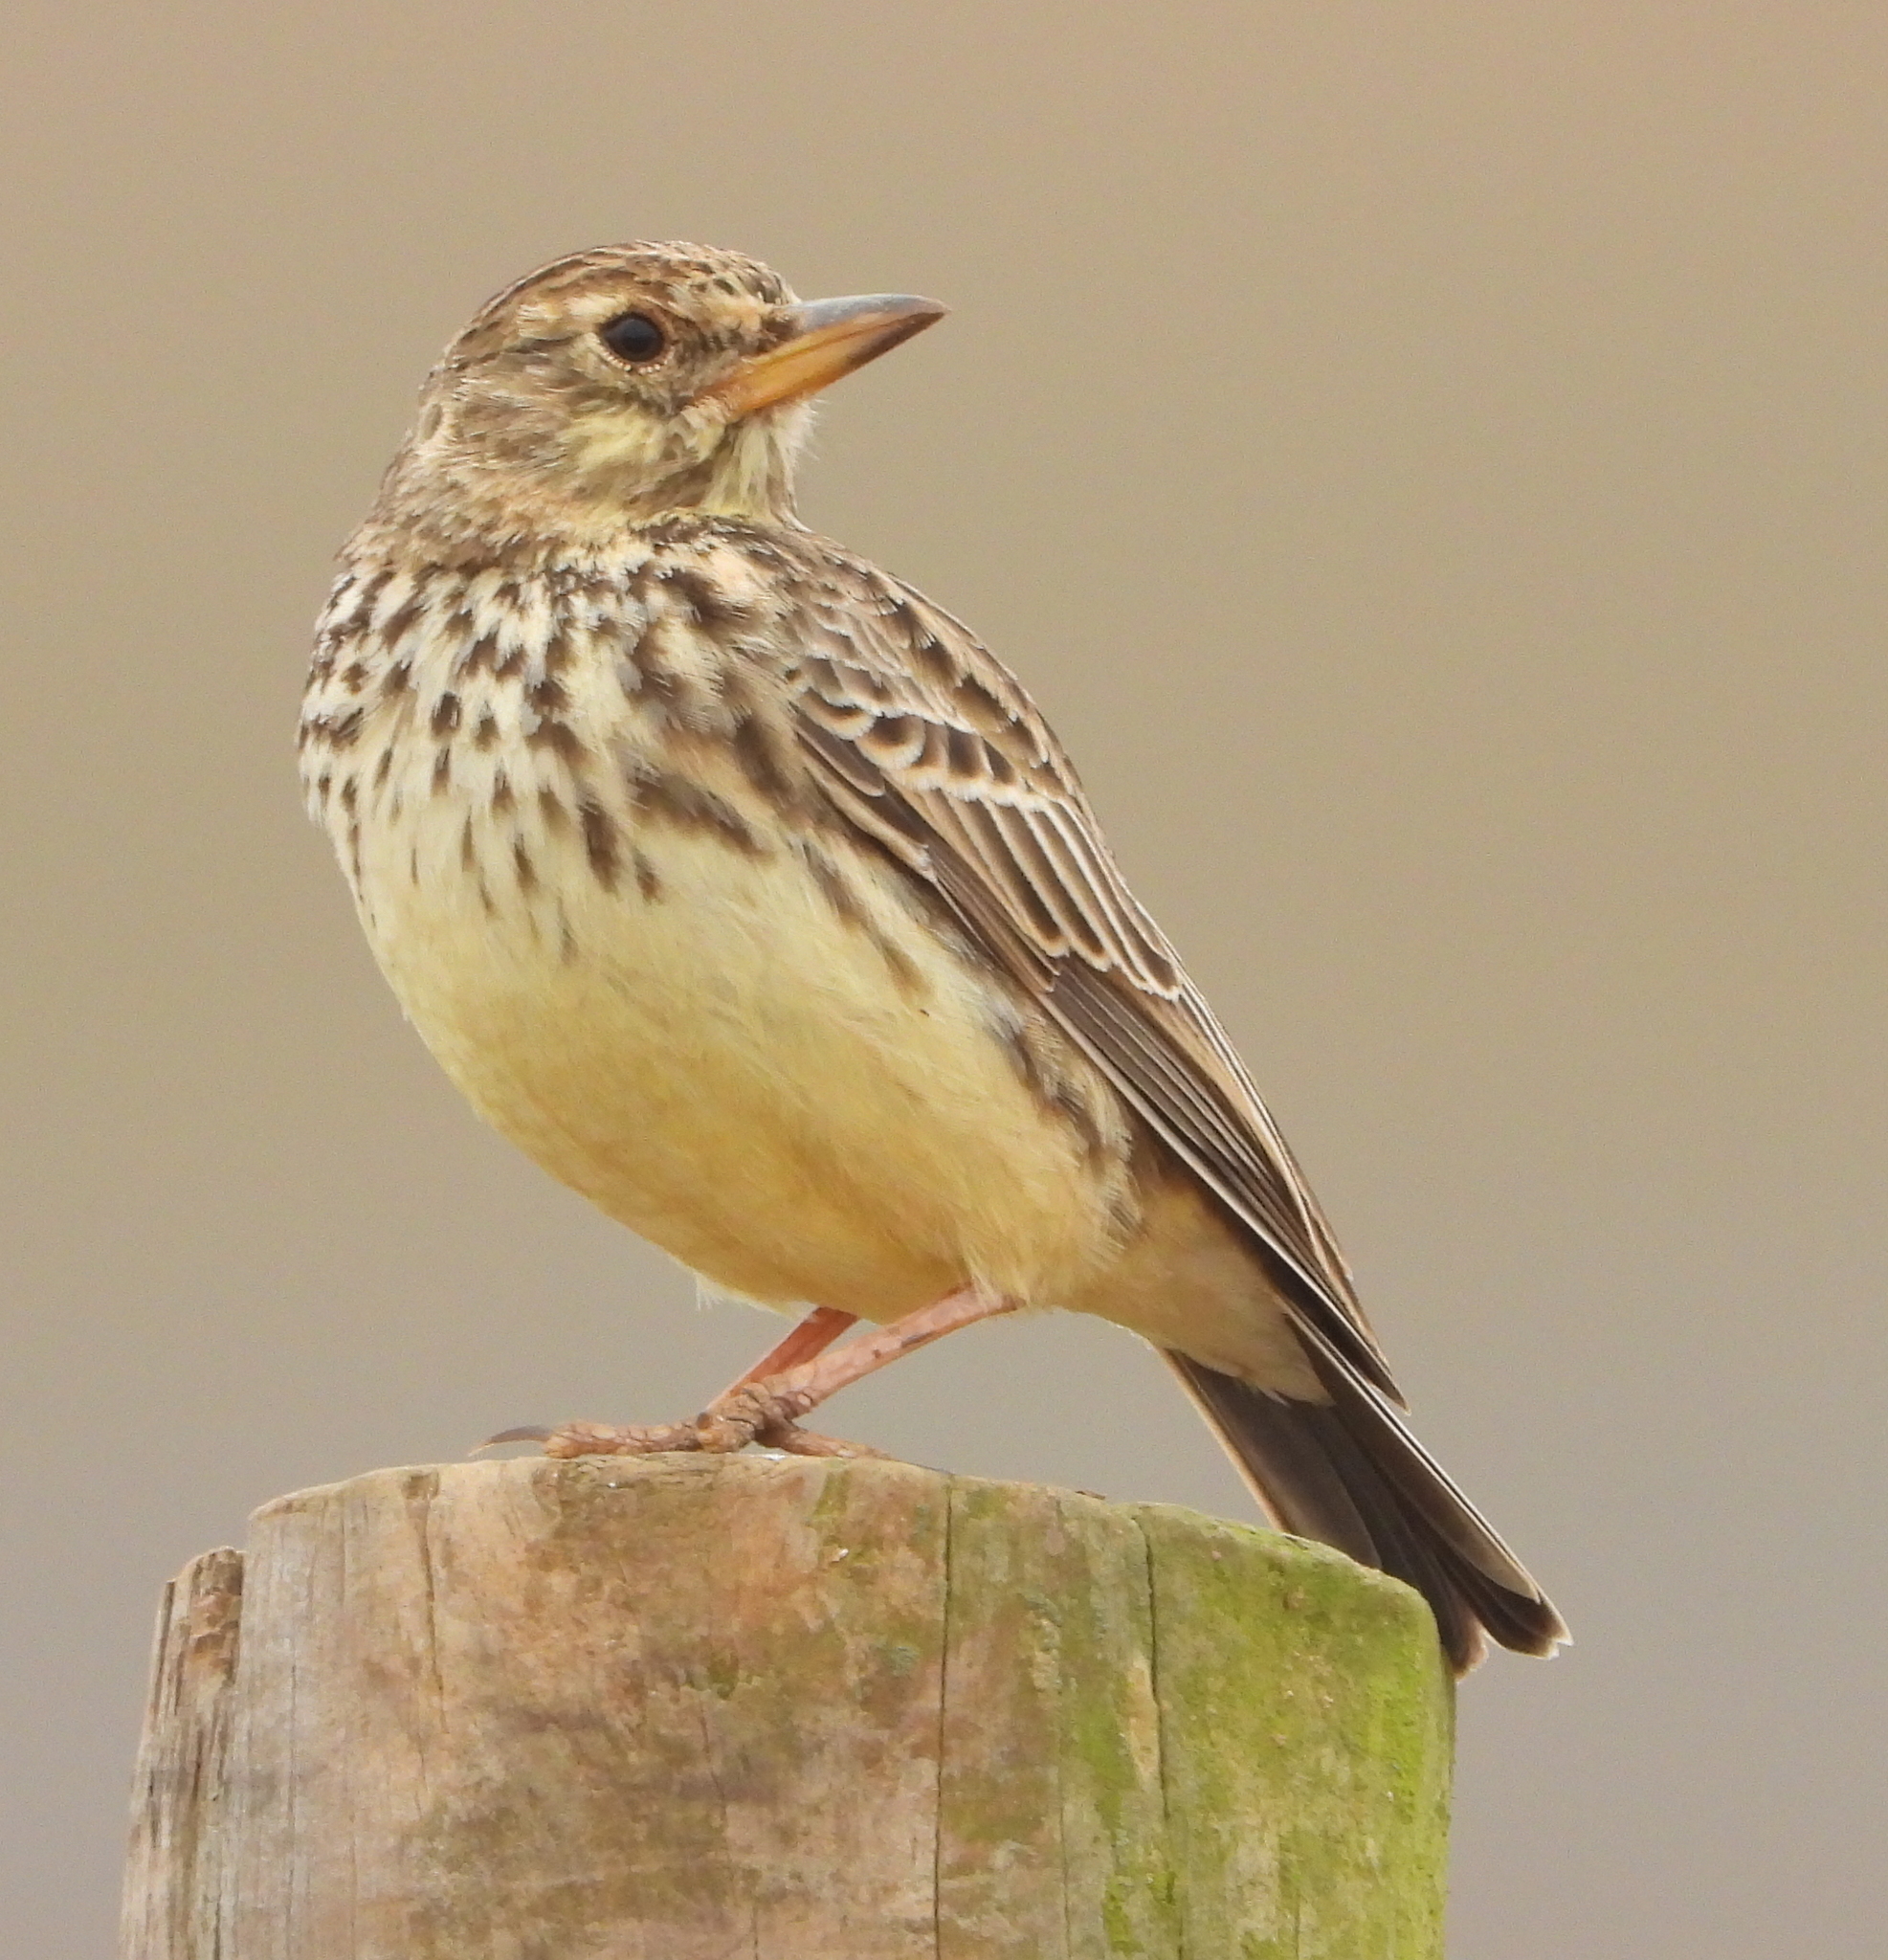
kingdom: Animalia
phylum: Chordata
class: Aves
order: Passeriformes
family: Alaudidae
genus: Galerida
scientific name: Galerida magnirostris
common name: Large-billed lark
